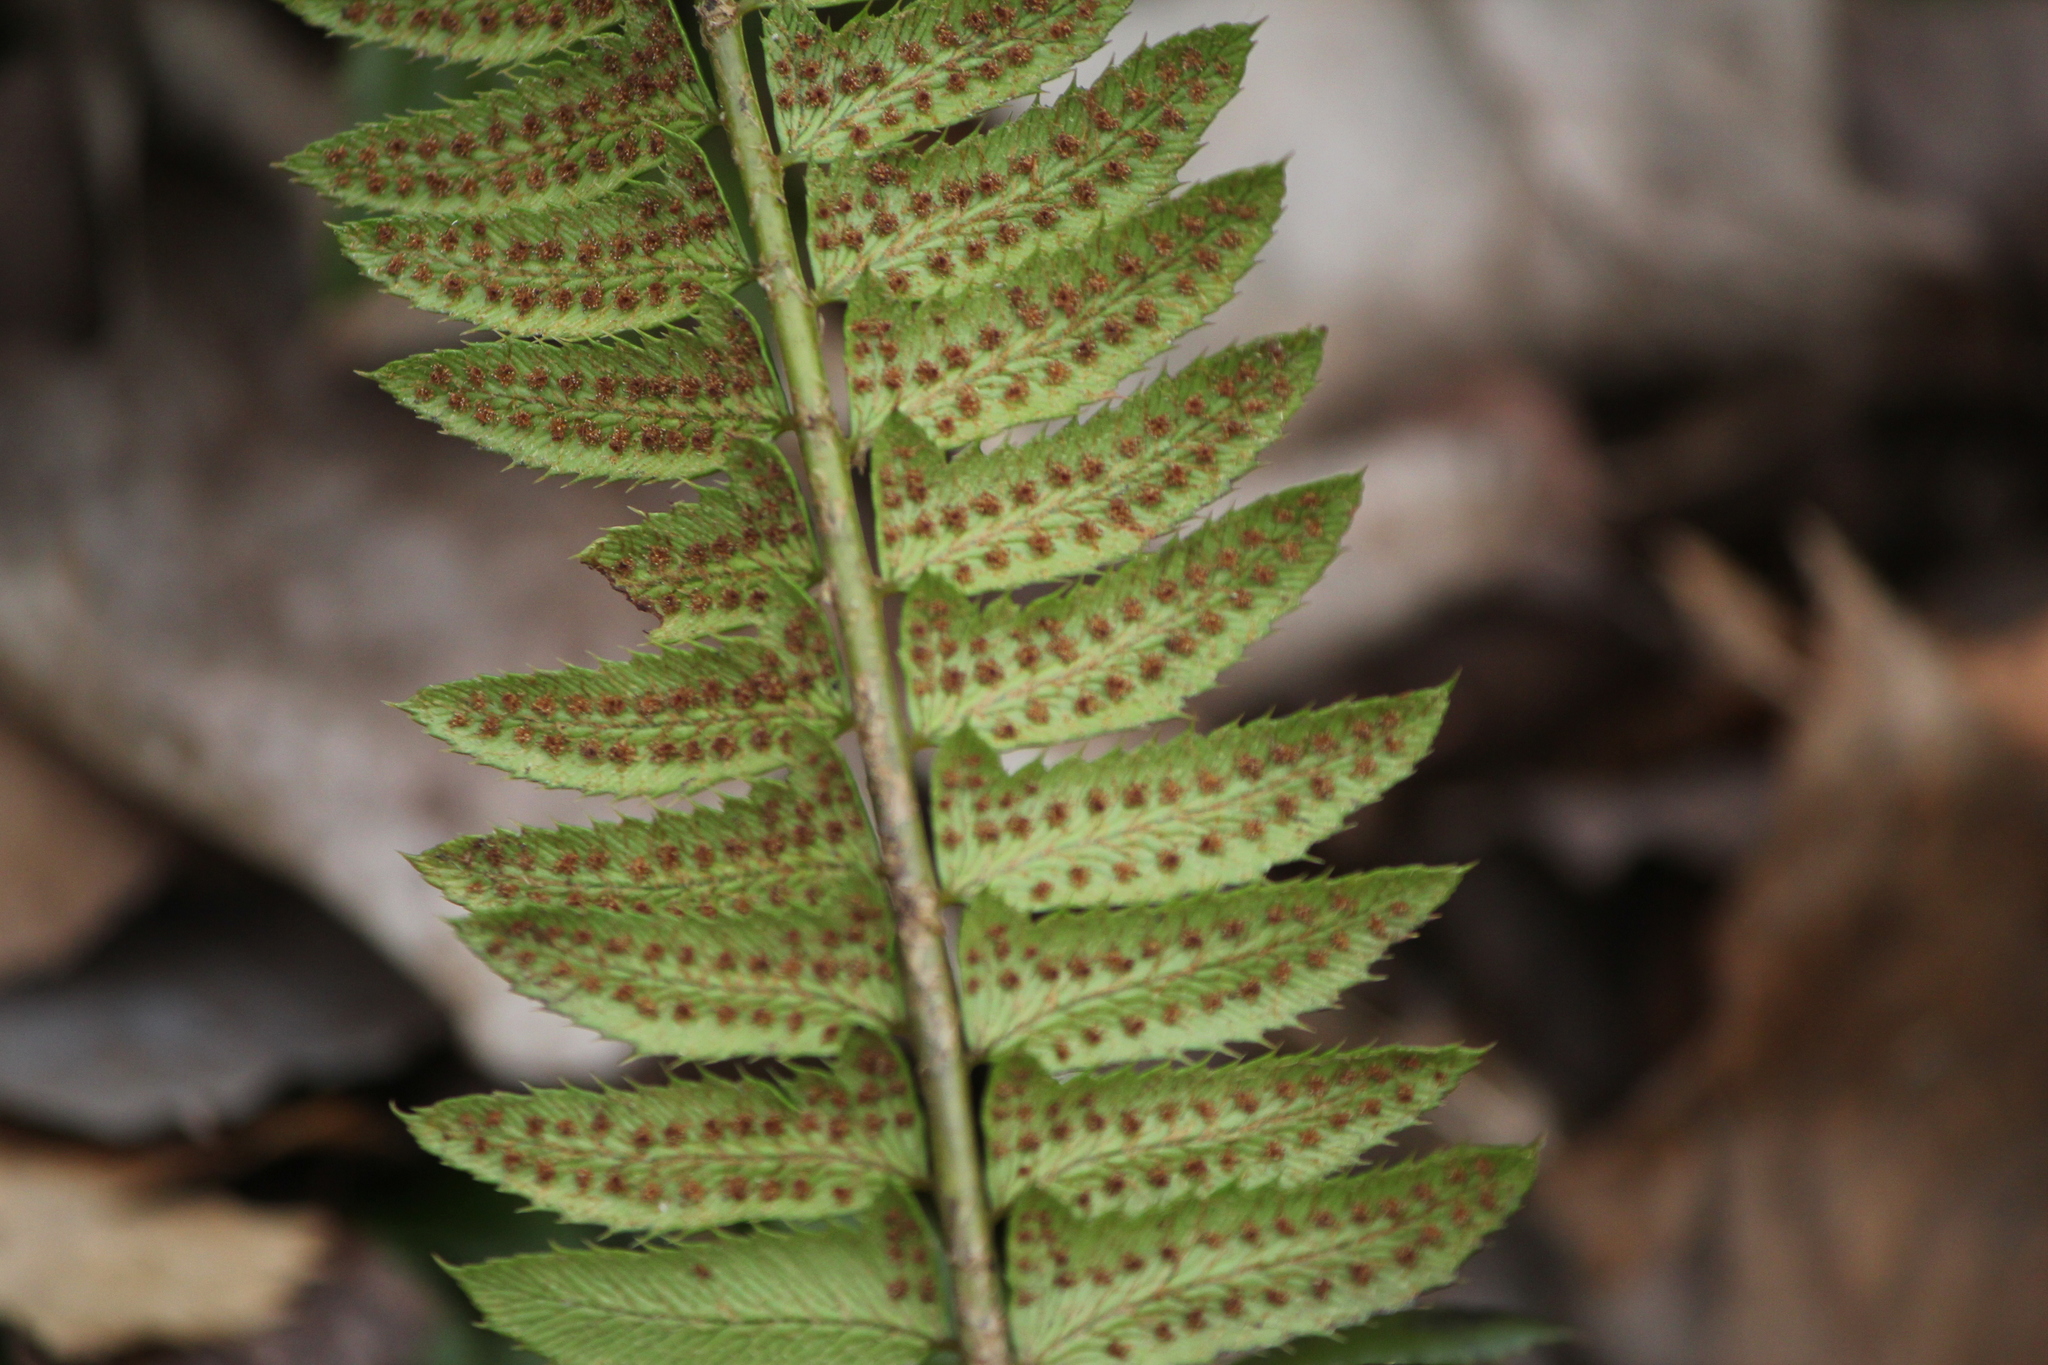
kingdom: Plantae
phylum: Tracheophyta
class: Polypodiopsida
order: Polypodiales
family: Dryopteridaceae
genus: Polystichum
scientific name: Polystichum lonchitis
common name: Holly fern
